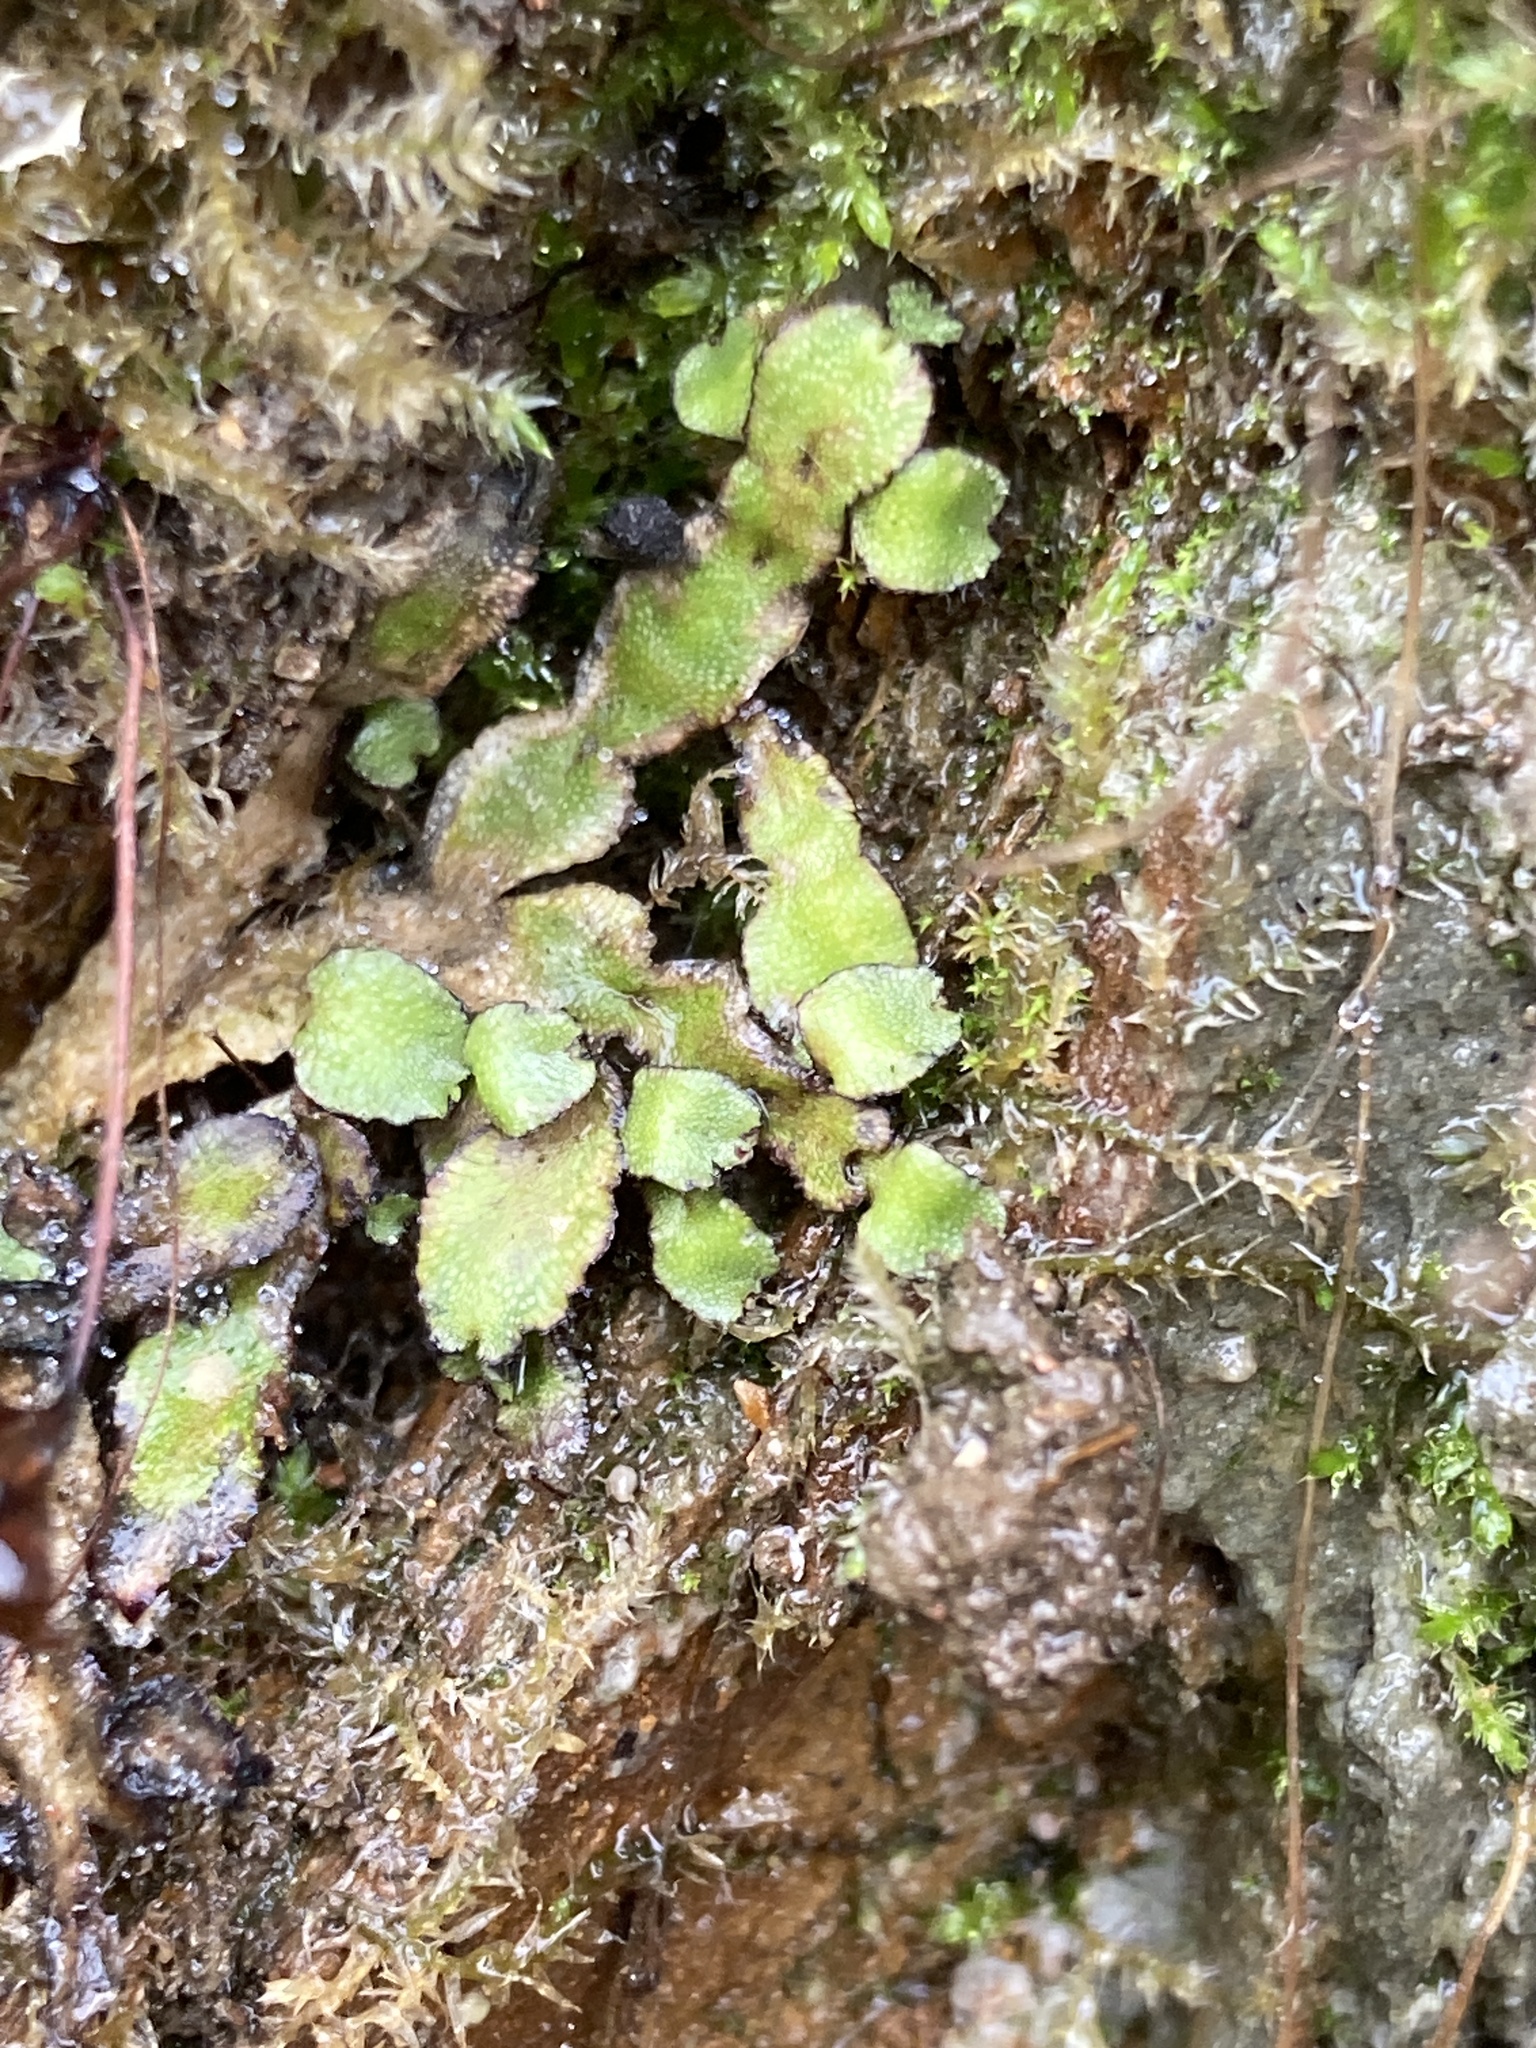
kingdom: Plantae
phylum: Marchantiophyta
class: Marchantiopsida
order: Marchantiales
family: Targioniaceae
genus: Targionia
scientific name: Targionia hypophylla
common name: Orobus-seed liverwort
